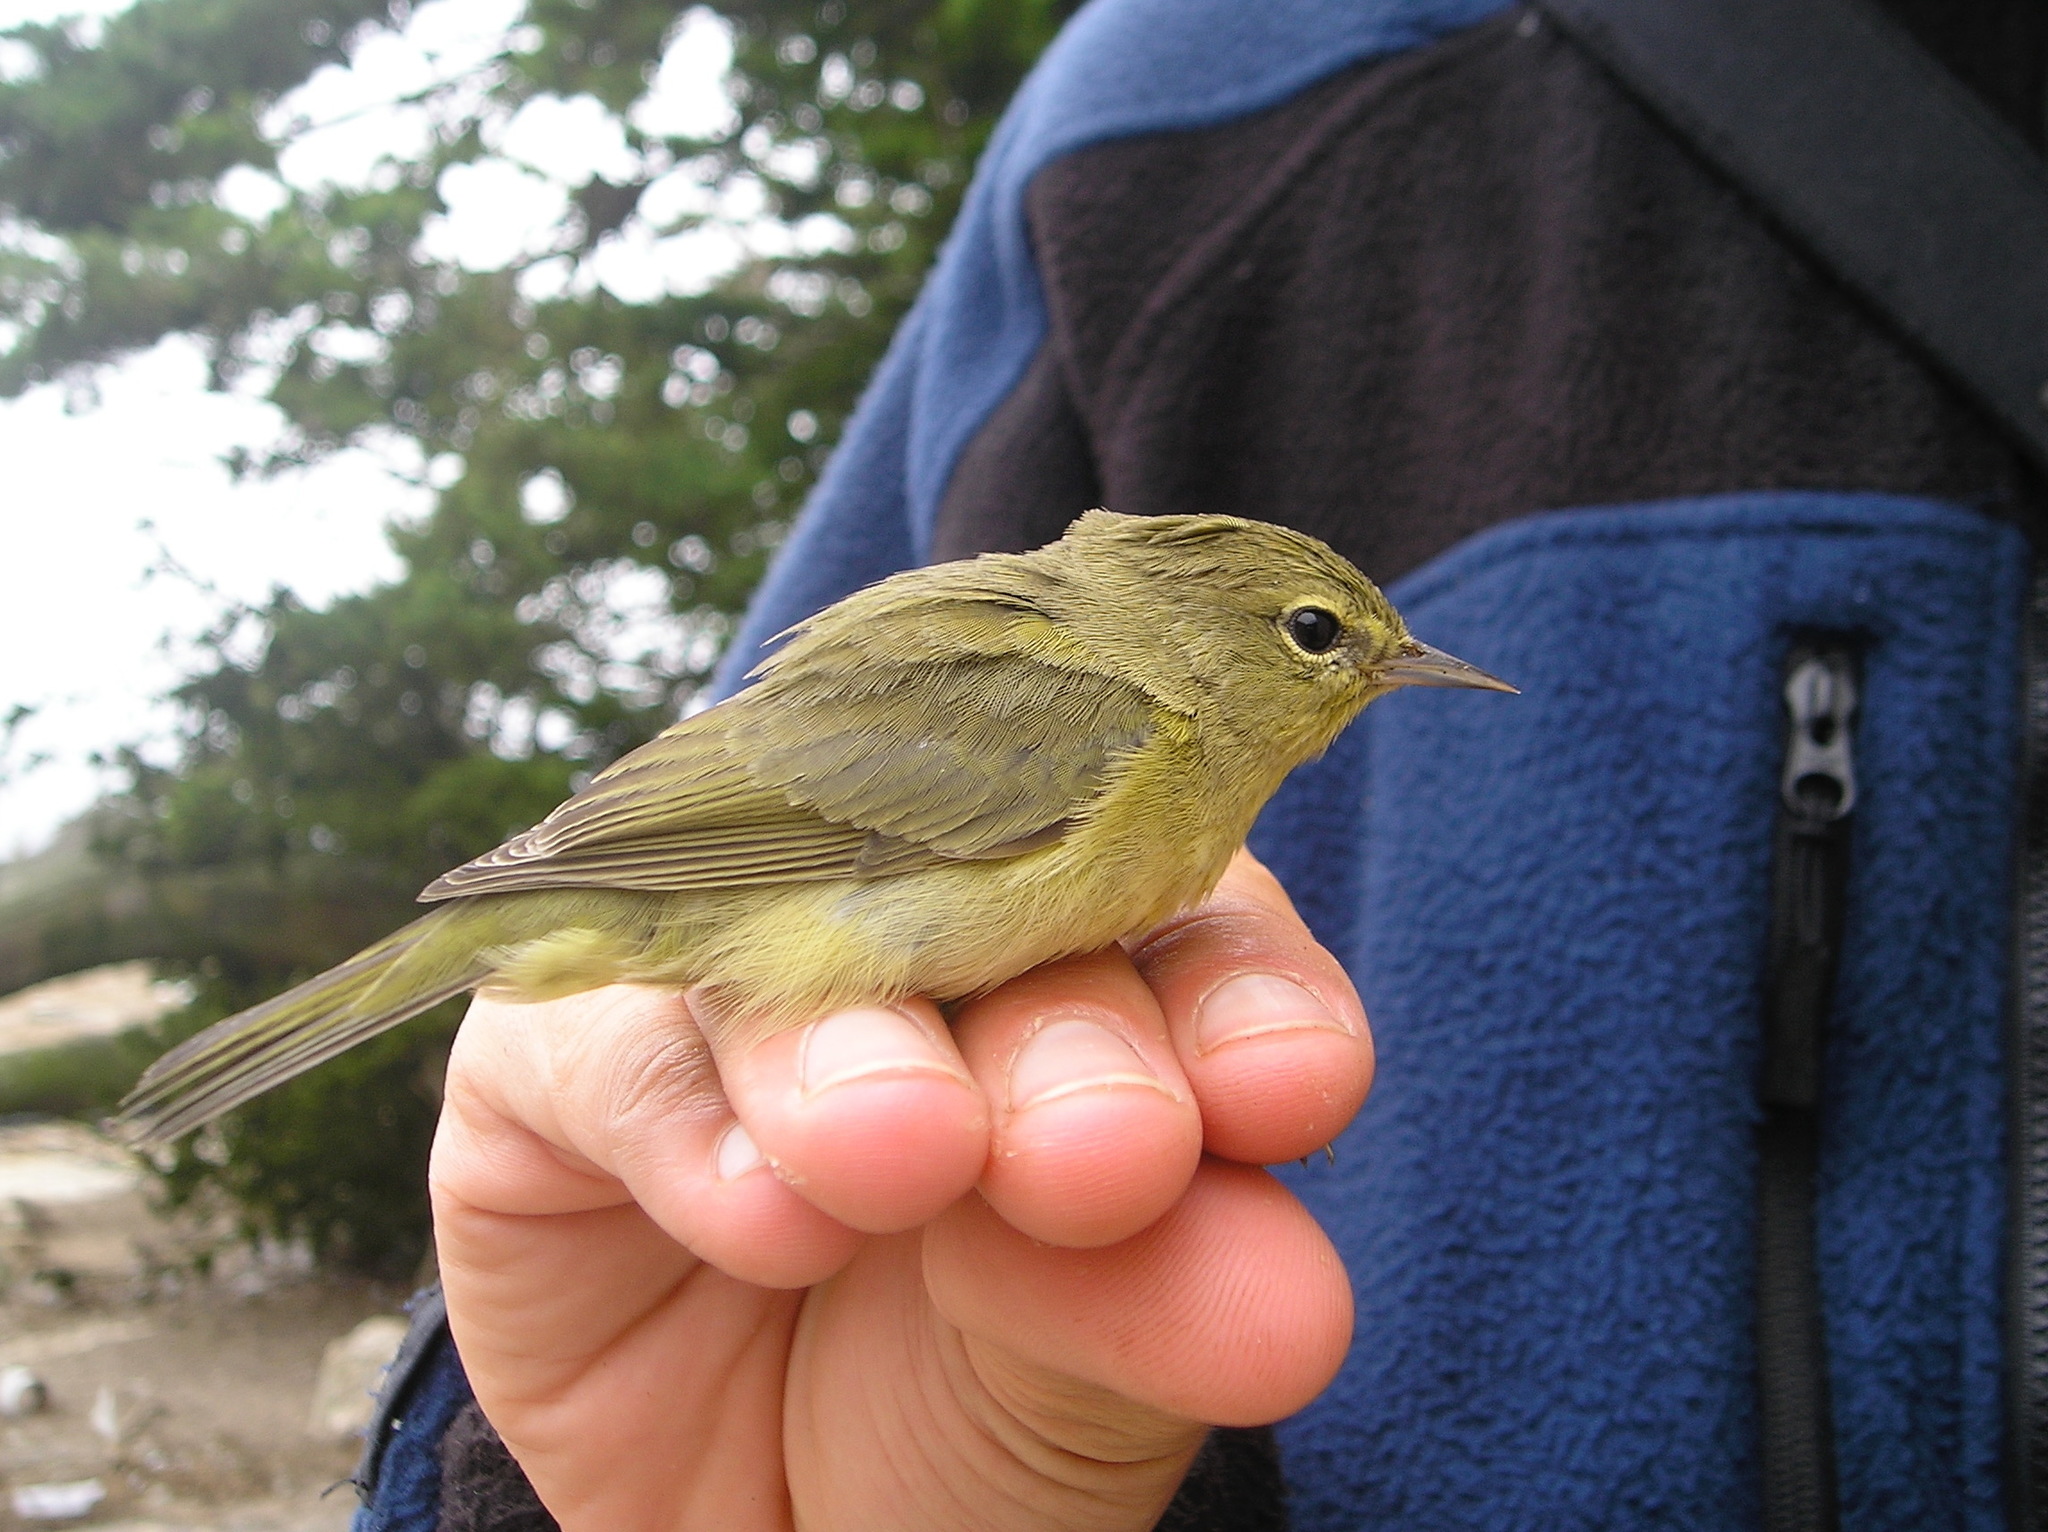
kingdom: Animalia
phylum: Chordata
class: Aves
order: Passeriformes
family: Parulidae
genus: Leiothlypis
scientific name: Leiothlypis celata
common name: Orange-crowned warbler
